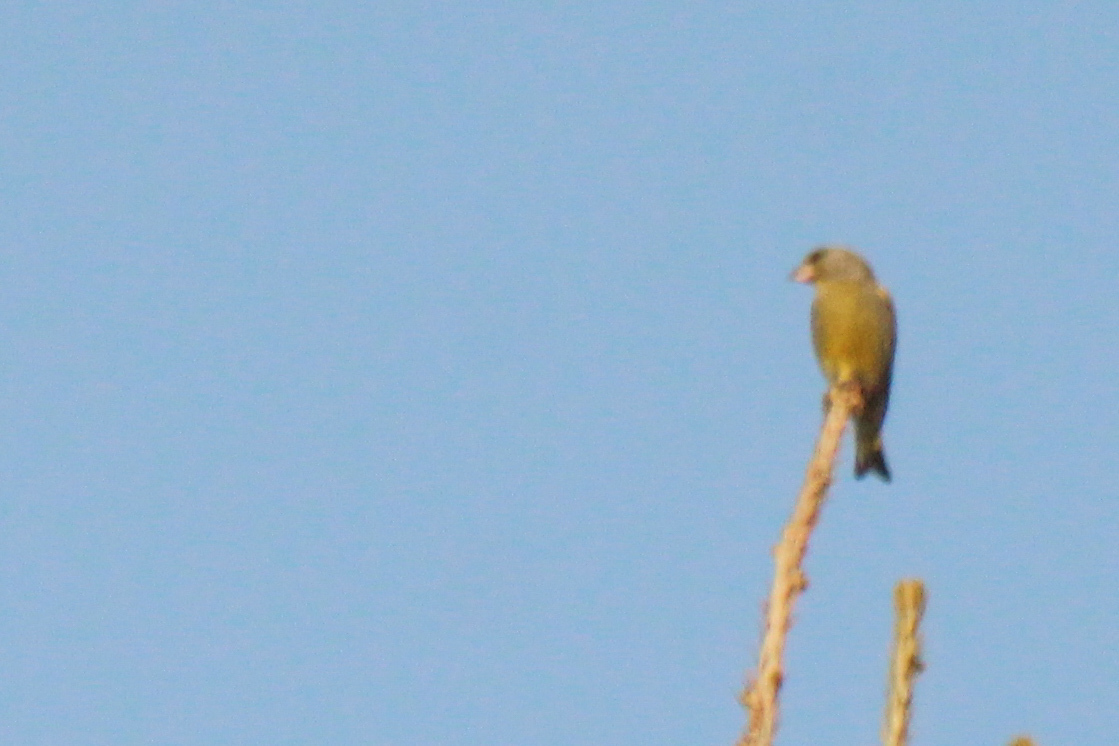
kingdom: Plantae
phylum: Tracheophyta
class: Liliopsida
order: Poales
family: Poaceae
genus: Chloris
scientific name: Chloris chloris
